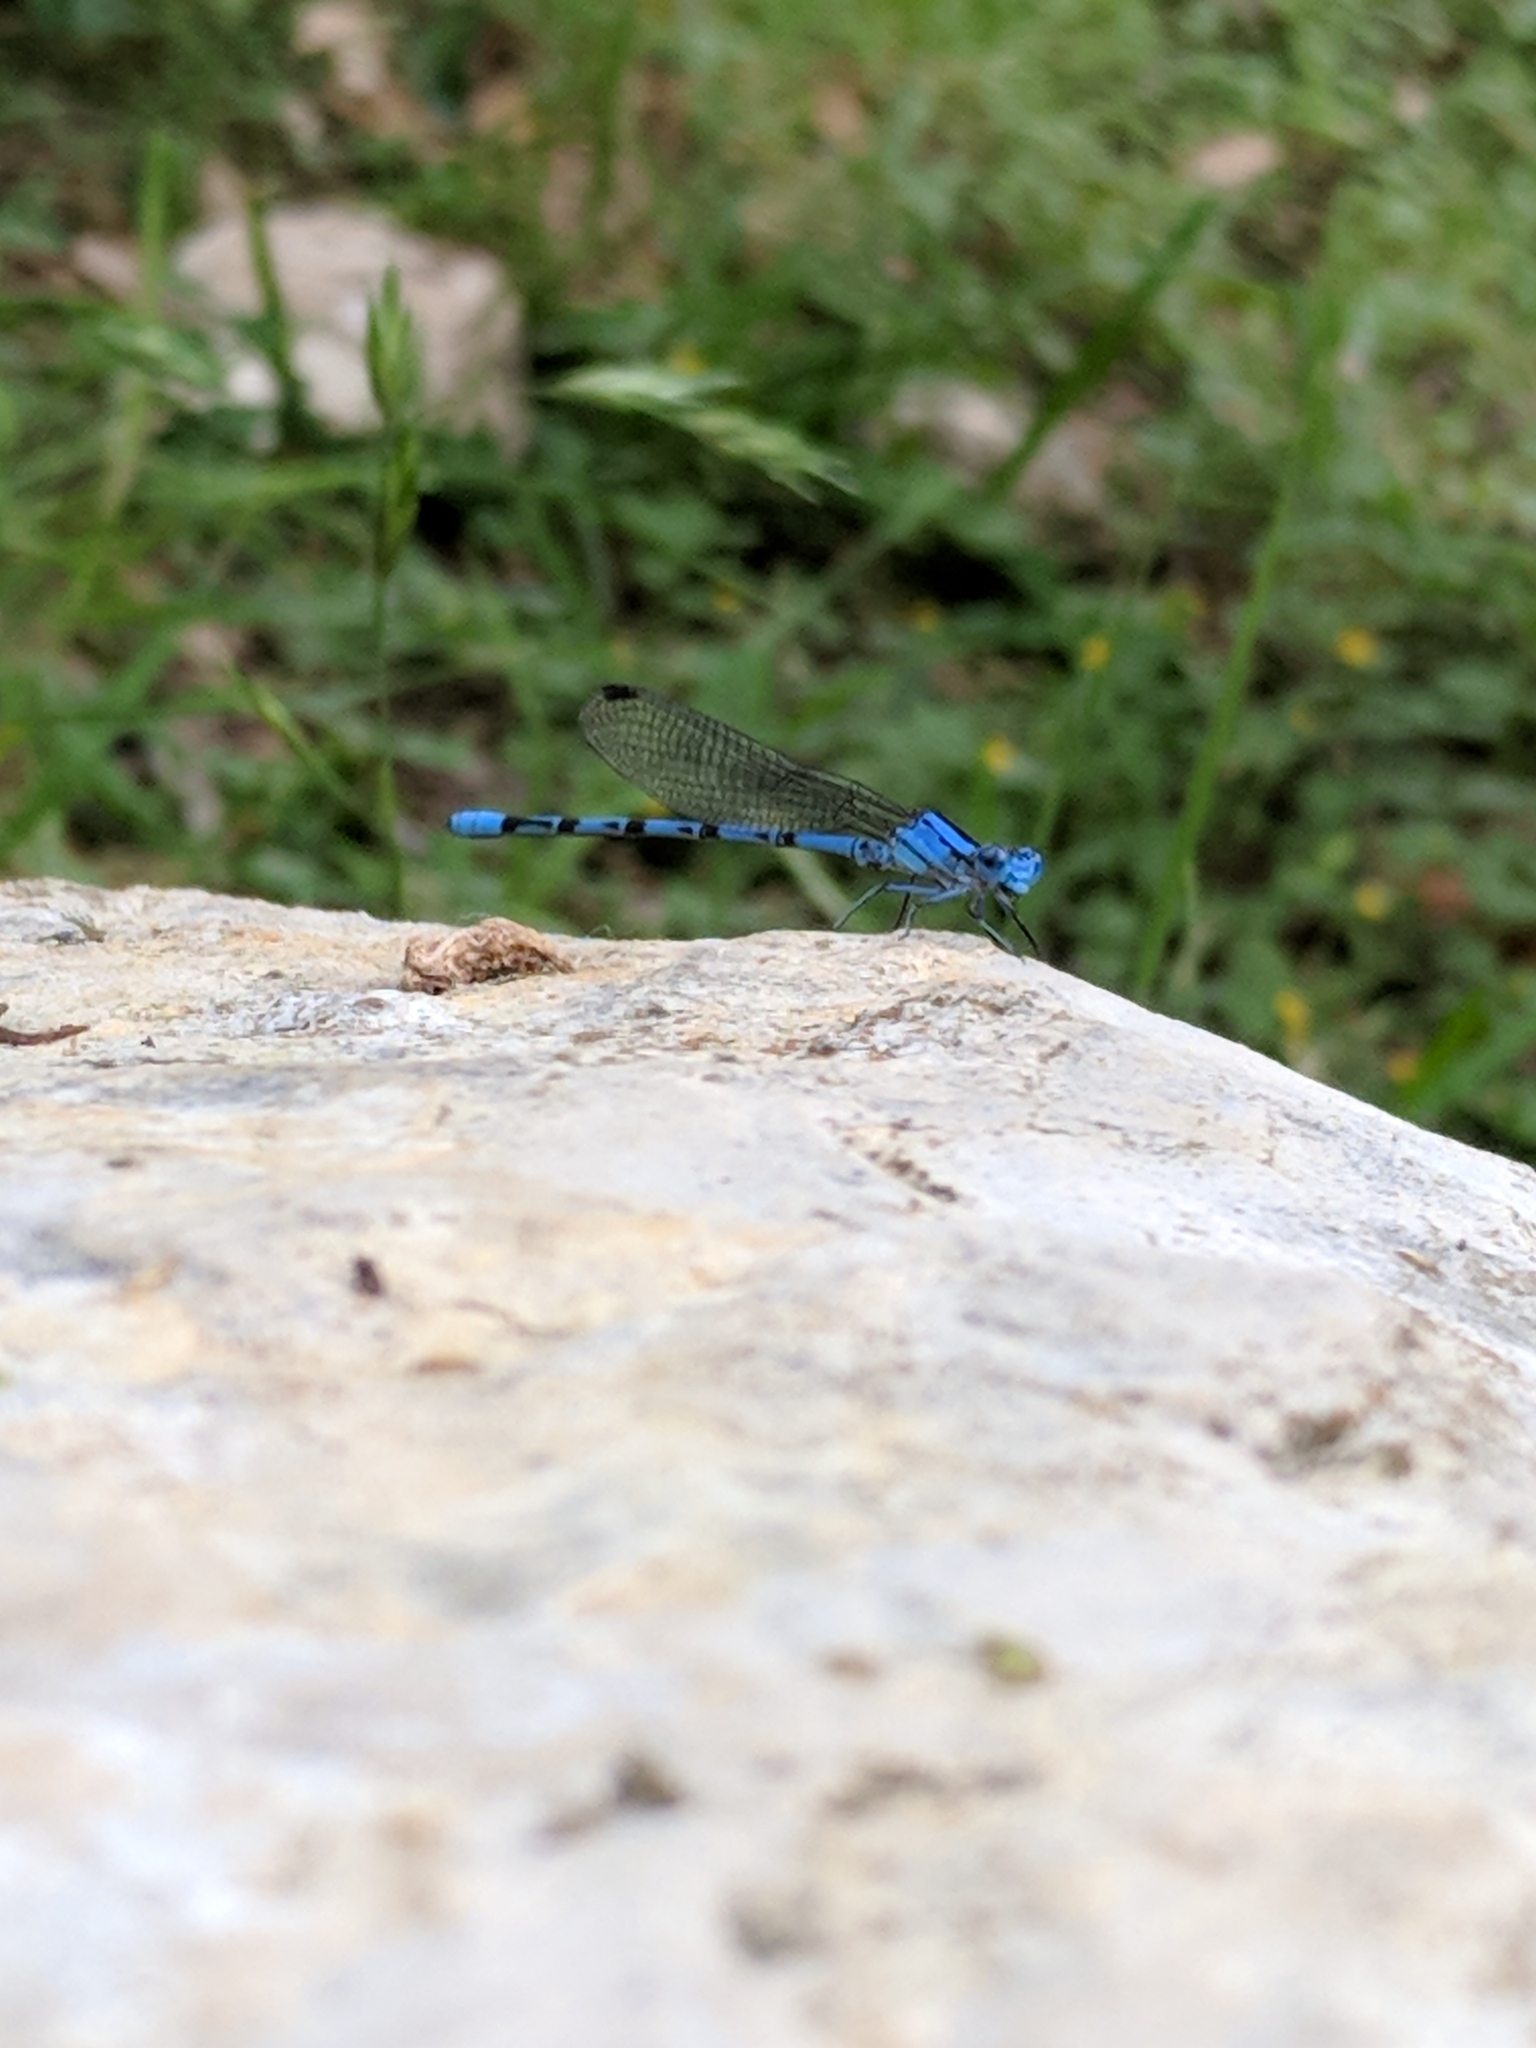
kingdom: Animalia
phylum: Arthropoda
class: Insecta
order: Odonata
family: Coenagrionidae
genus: Argia
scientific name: Argia funebris
